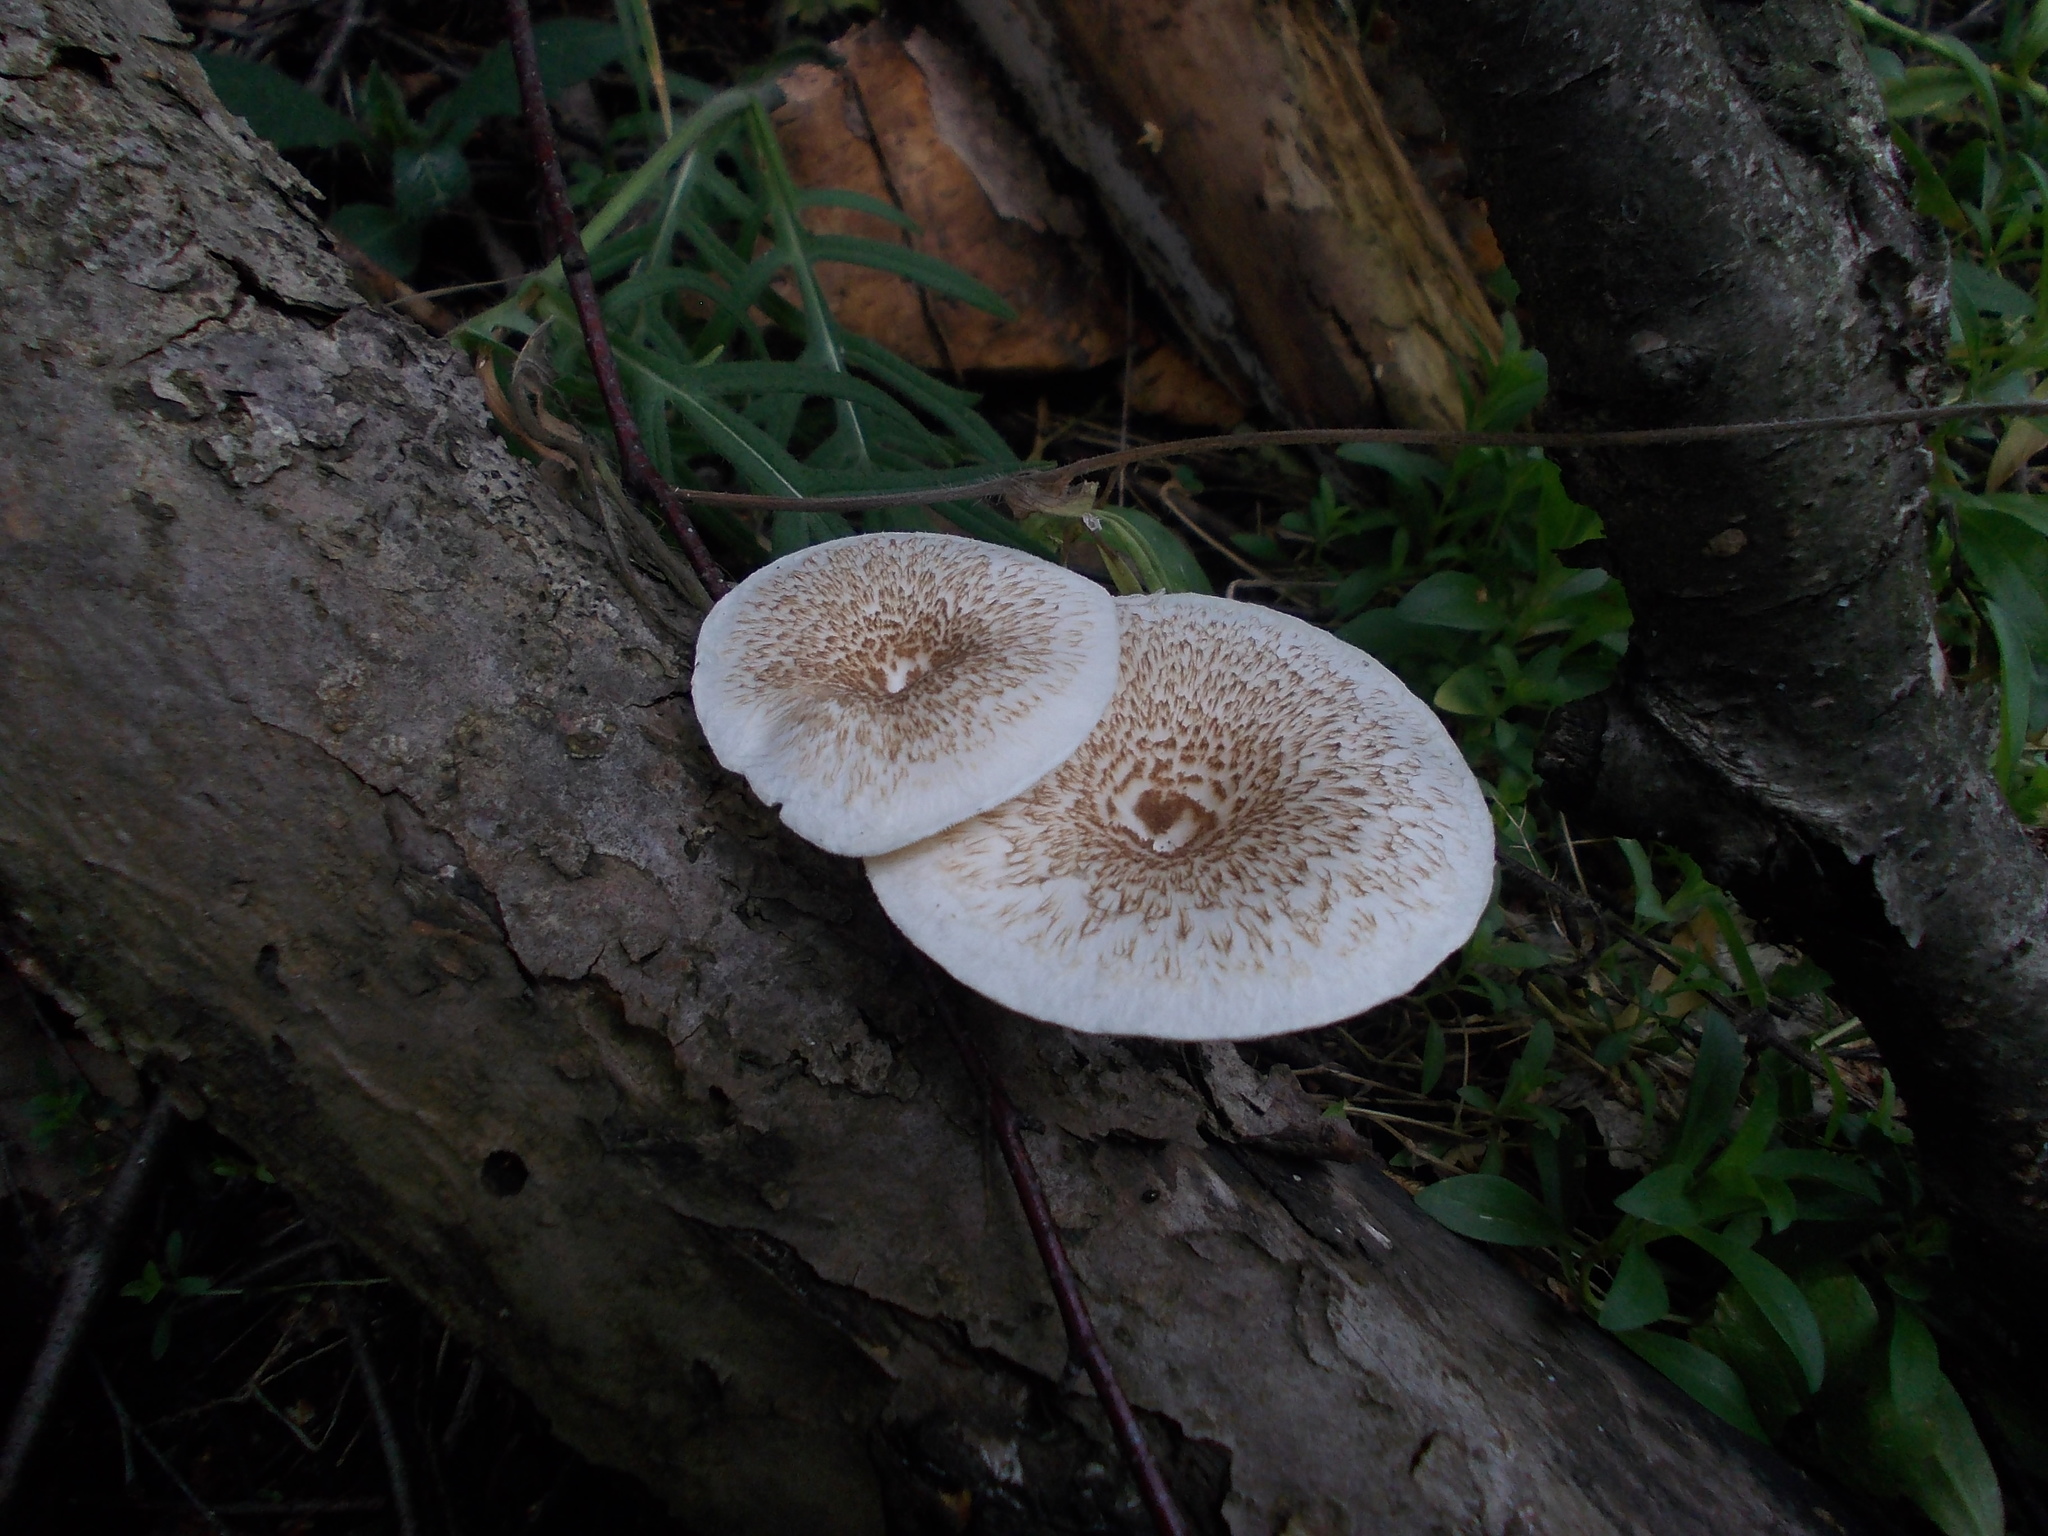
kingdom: Fungi
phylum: Basidiomycota
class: Agaricomycetes
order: Polyporales
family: Polyporaceae
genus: Lentinus
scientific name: Lentinus tigrinus
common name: Tiger sawgill
